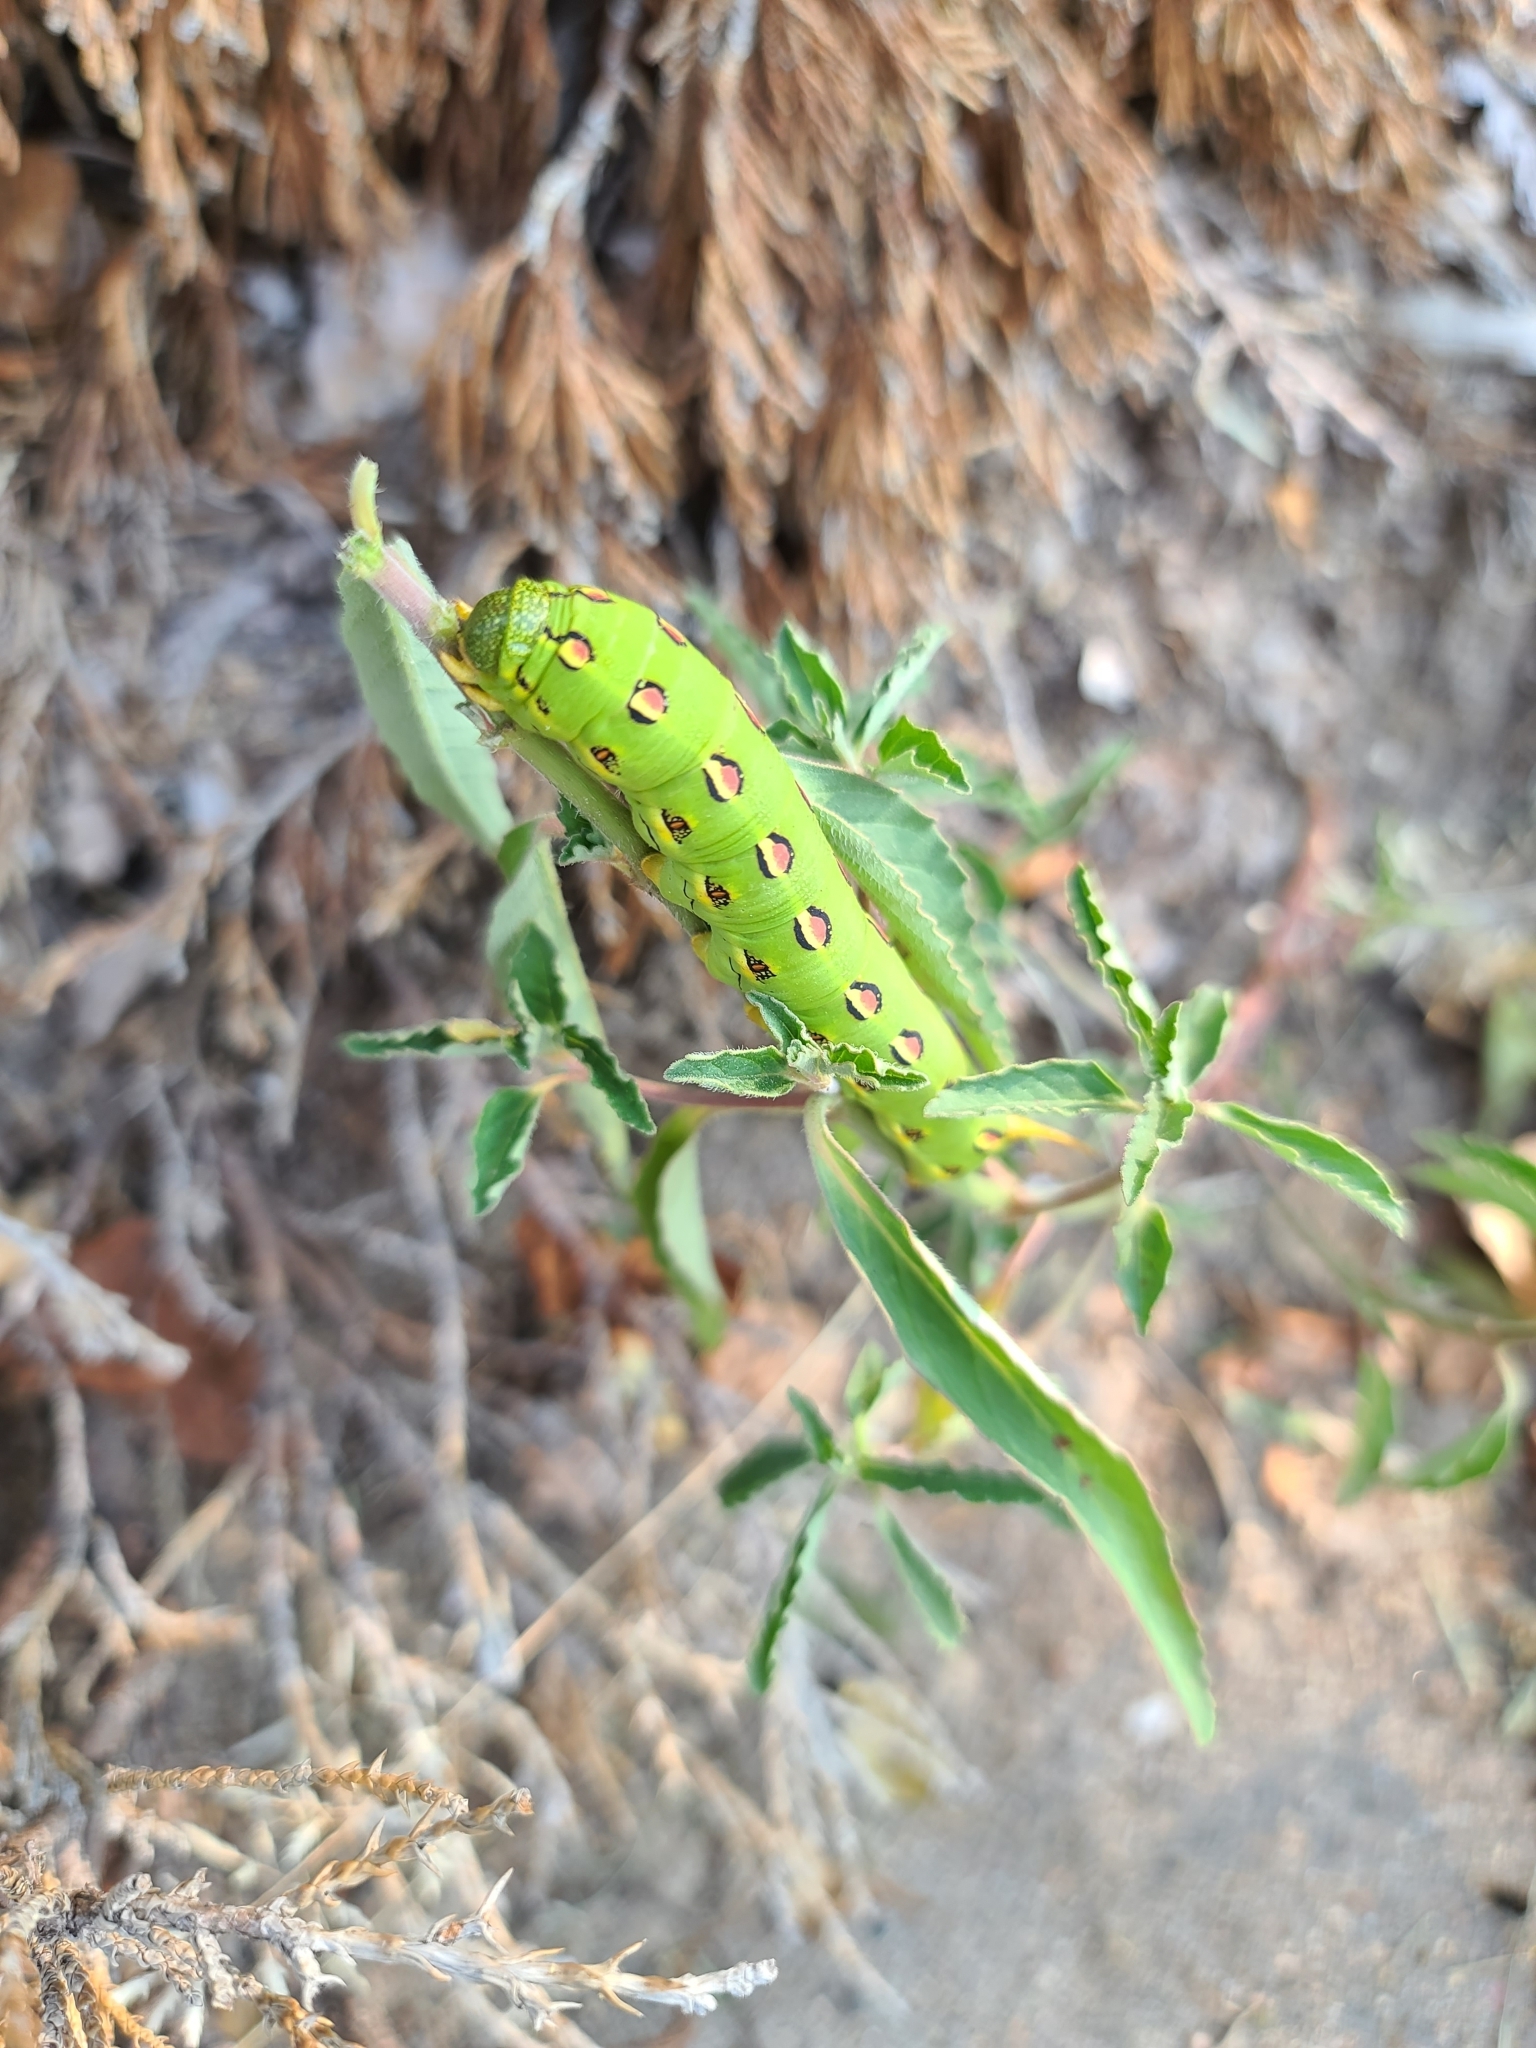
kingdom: Animalia
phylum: Arthropoda
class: Insecta
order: Lepidoptera
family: Sphingidae
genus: Hyles
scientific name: Hyles lineata
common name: White-lined sphinx
